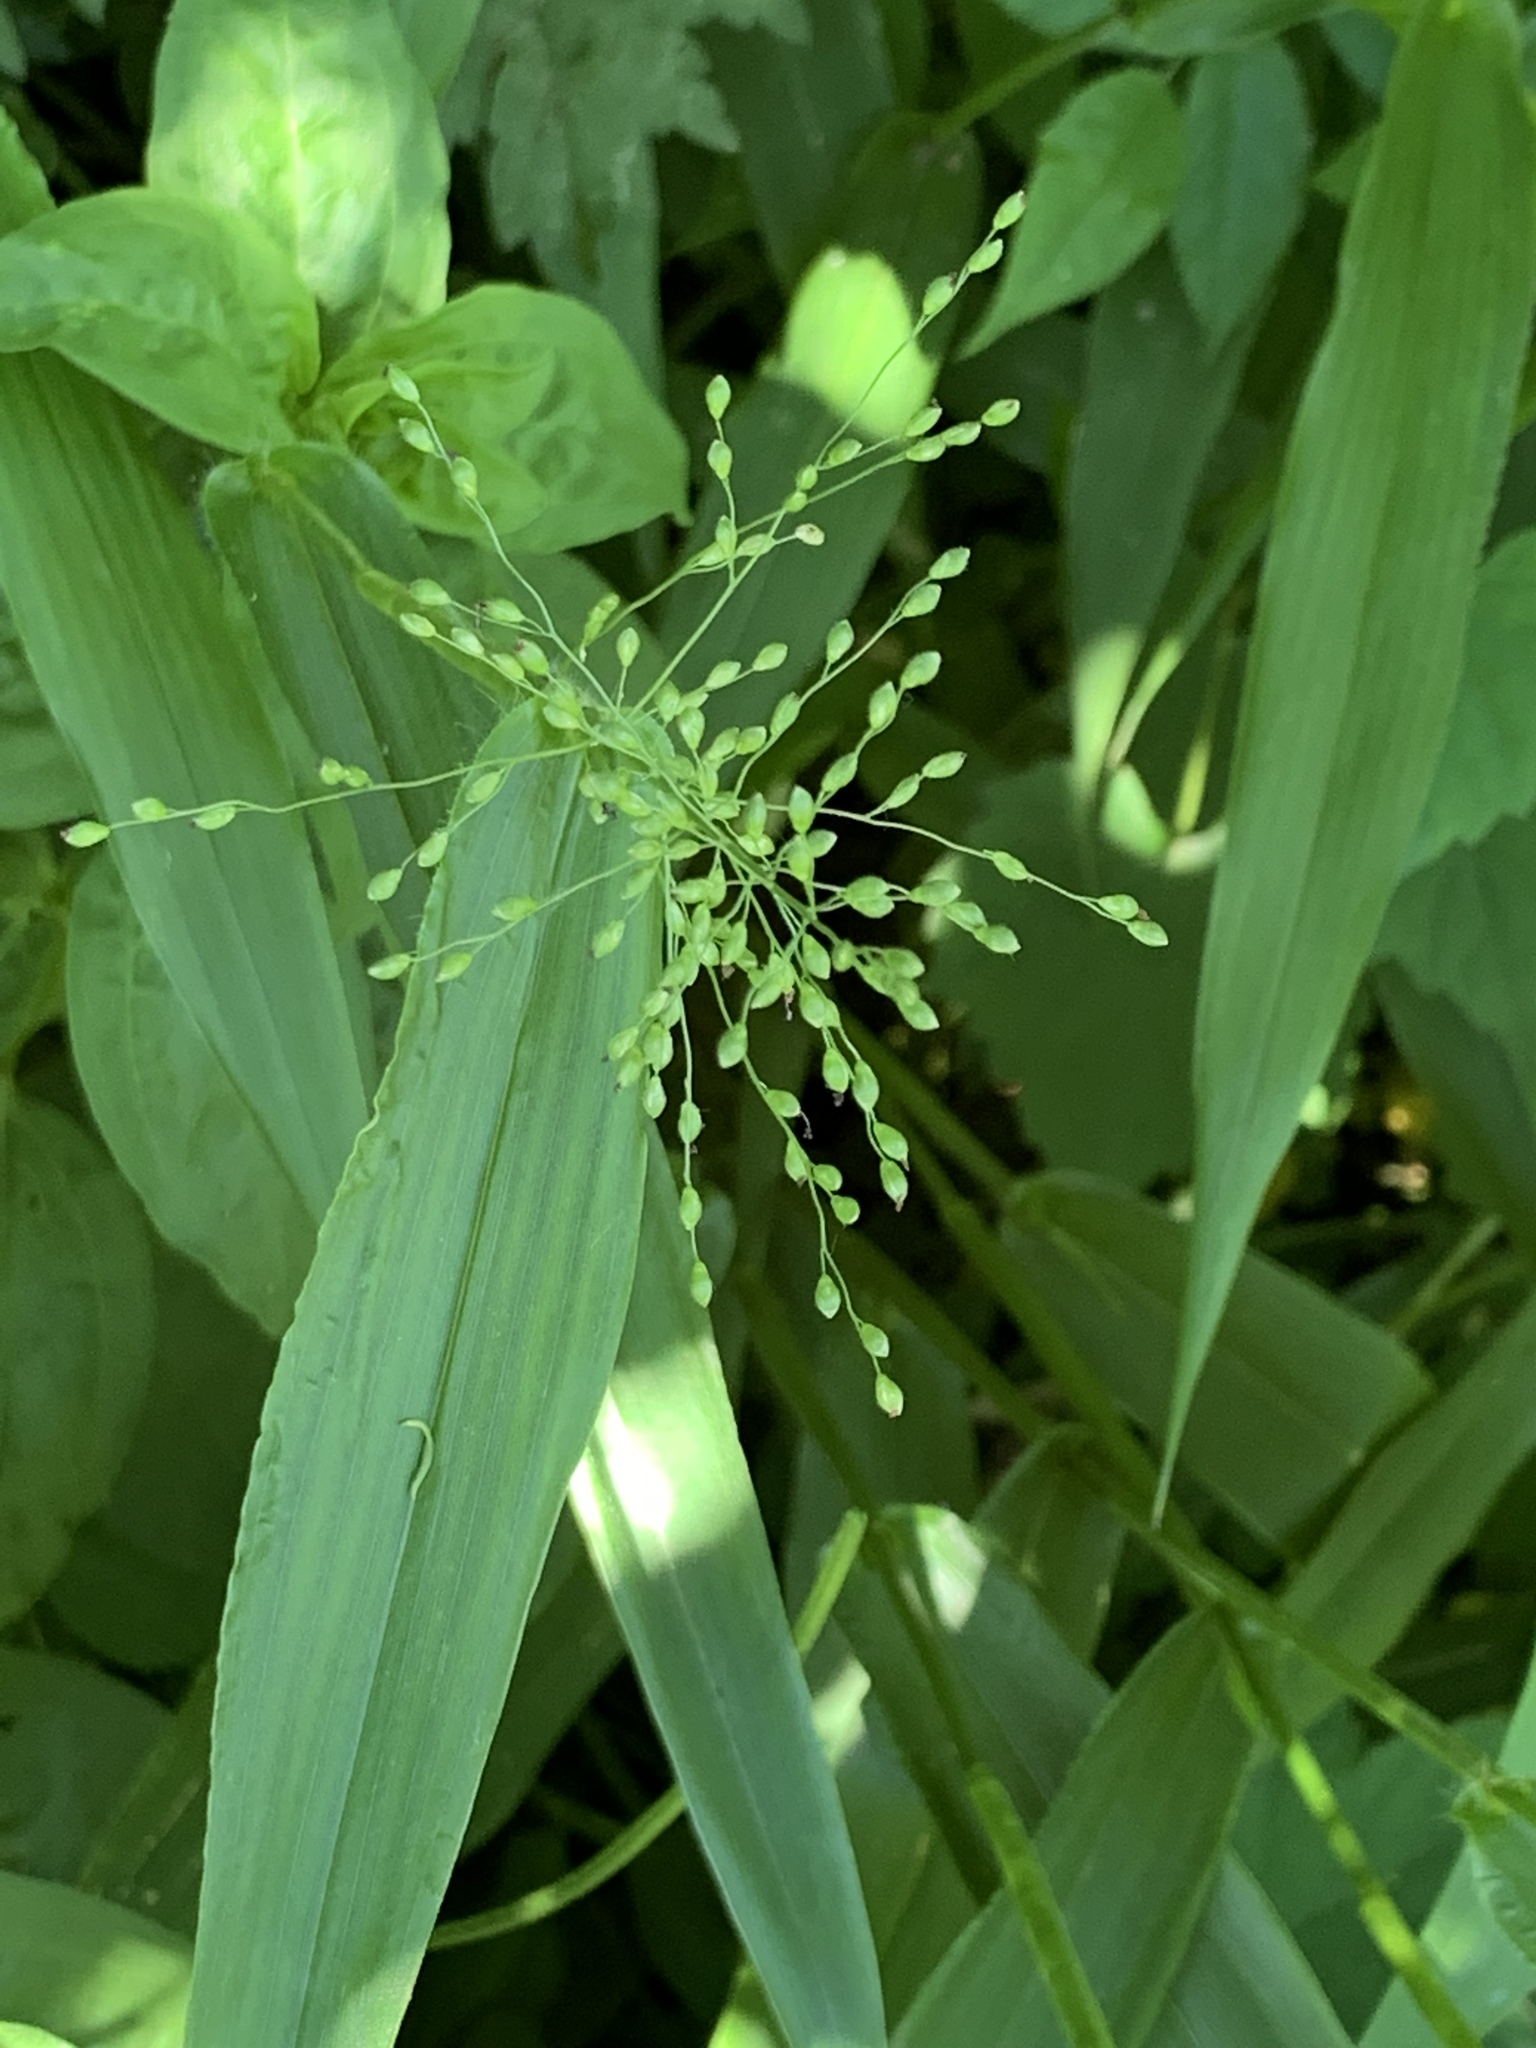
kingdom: Plantae
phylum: Tracheophyta
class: Liliopsida
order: Poales
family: Poaceae
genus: Dichanthelium
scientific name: Dichanthelium clandestinum
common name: Deer-tongue grass
